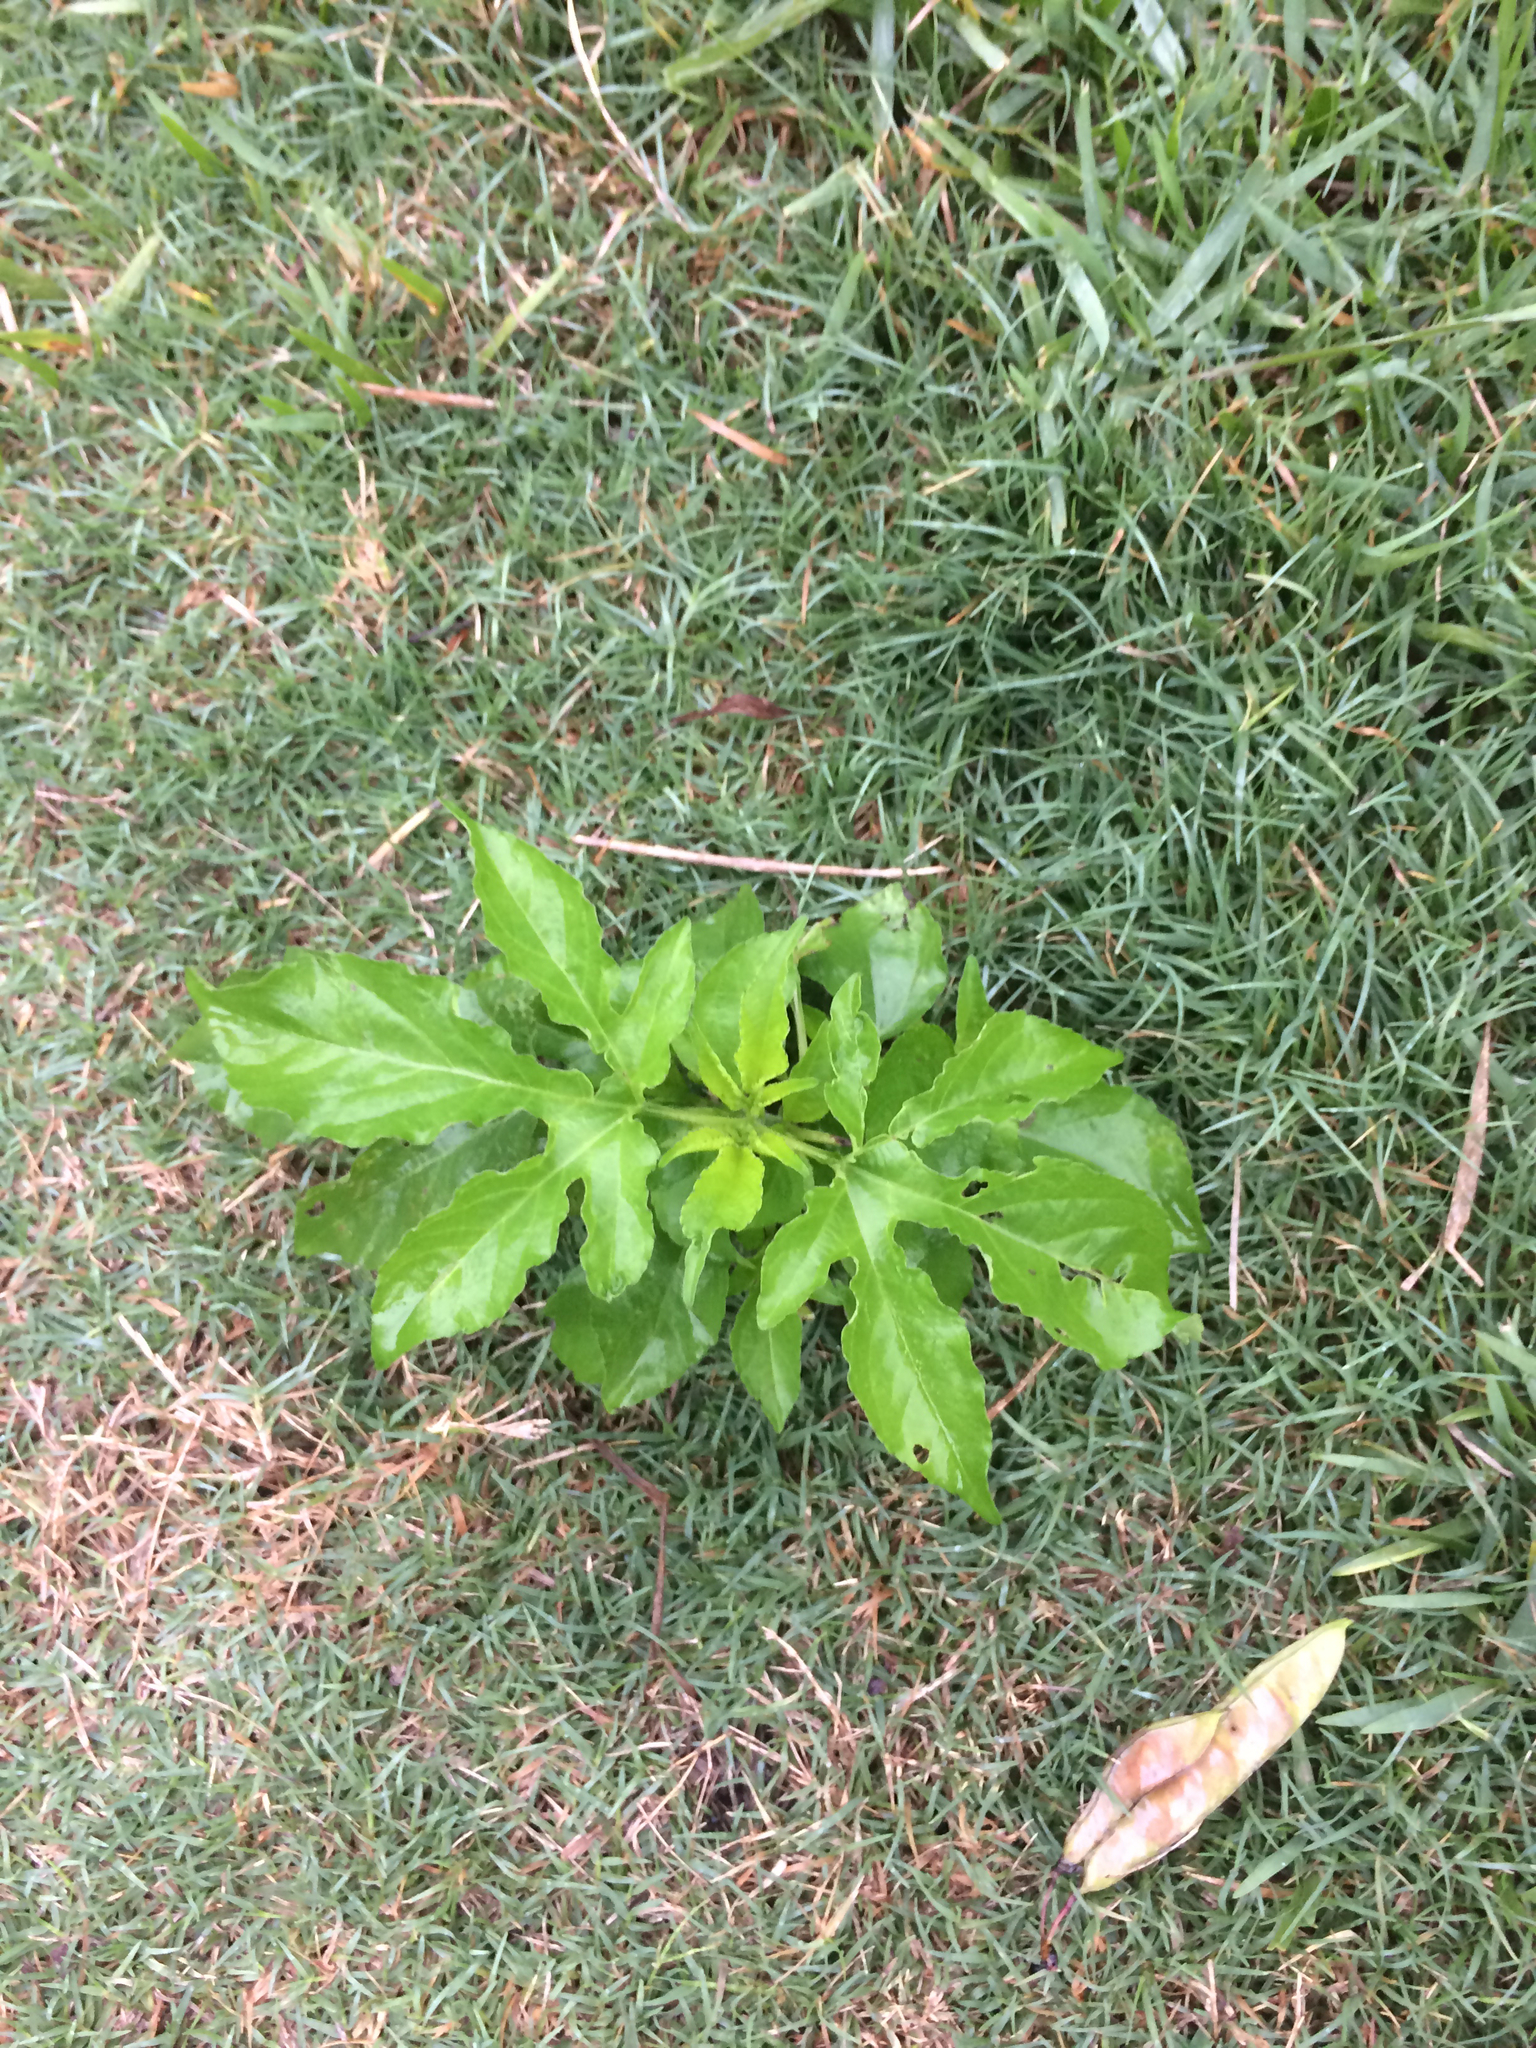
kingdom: Plantae
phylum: Tracheophyta
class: Magnoliopsida
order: Asterales
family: Asteraceae
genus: Ambrosia
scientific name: Ambrosia trifida
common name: Giant ragweed
